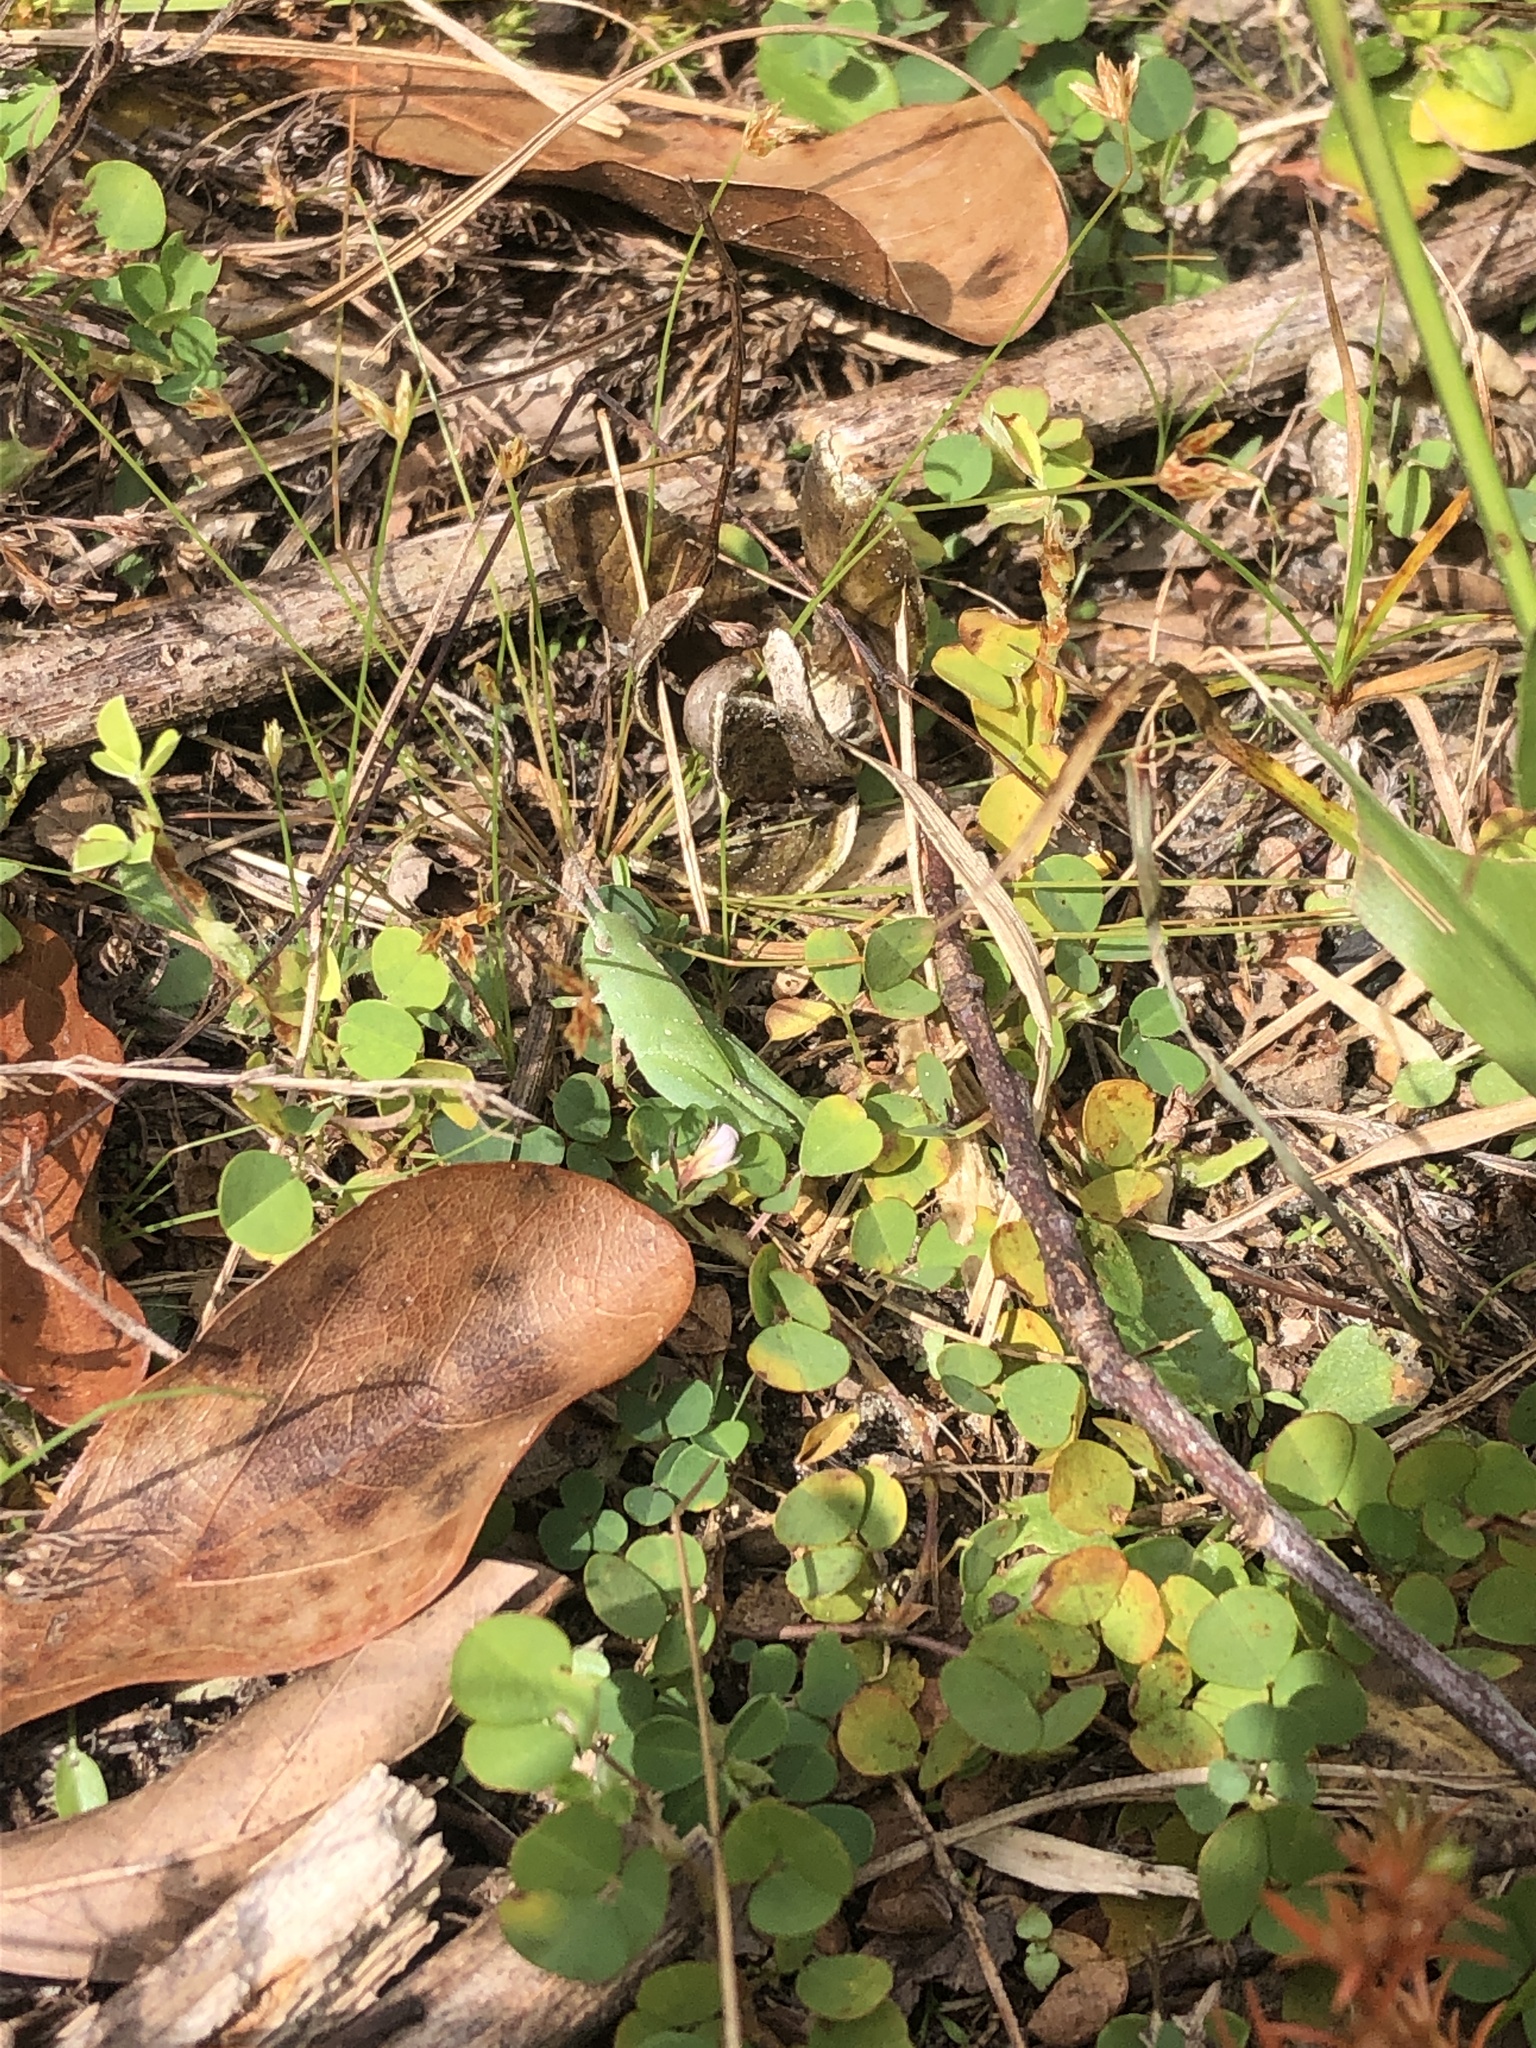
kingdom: Animalia
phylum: Arthropoda
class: Insecta
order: Orthoptera
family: Acrididae
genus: Chortophaga
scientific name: Chortophaga australior
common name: Southern green-striped grasshopper
